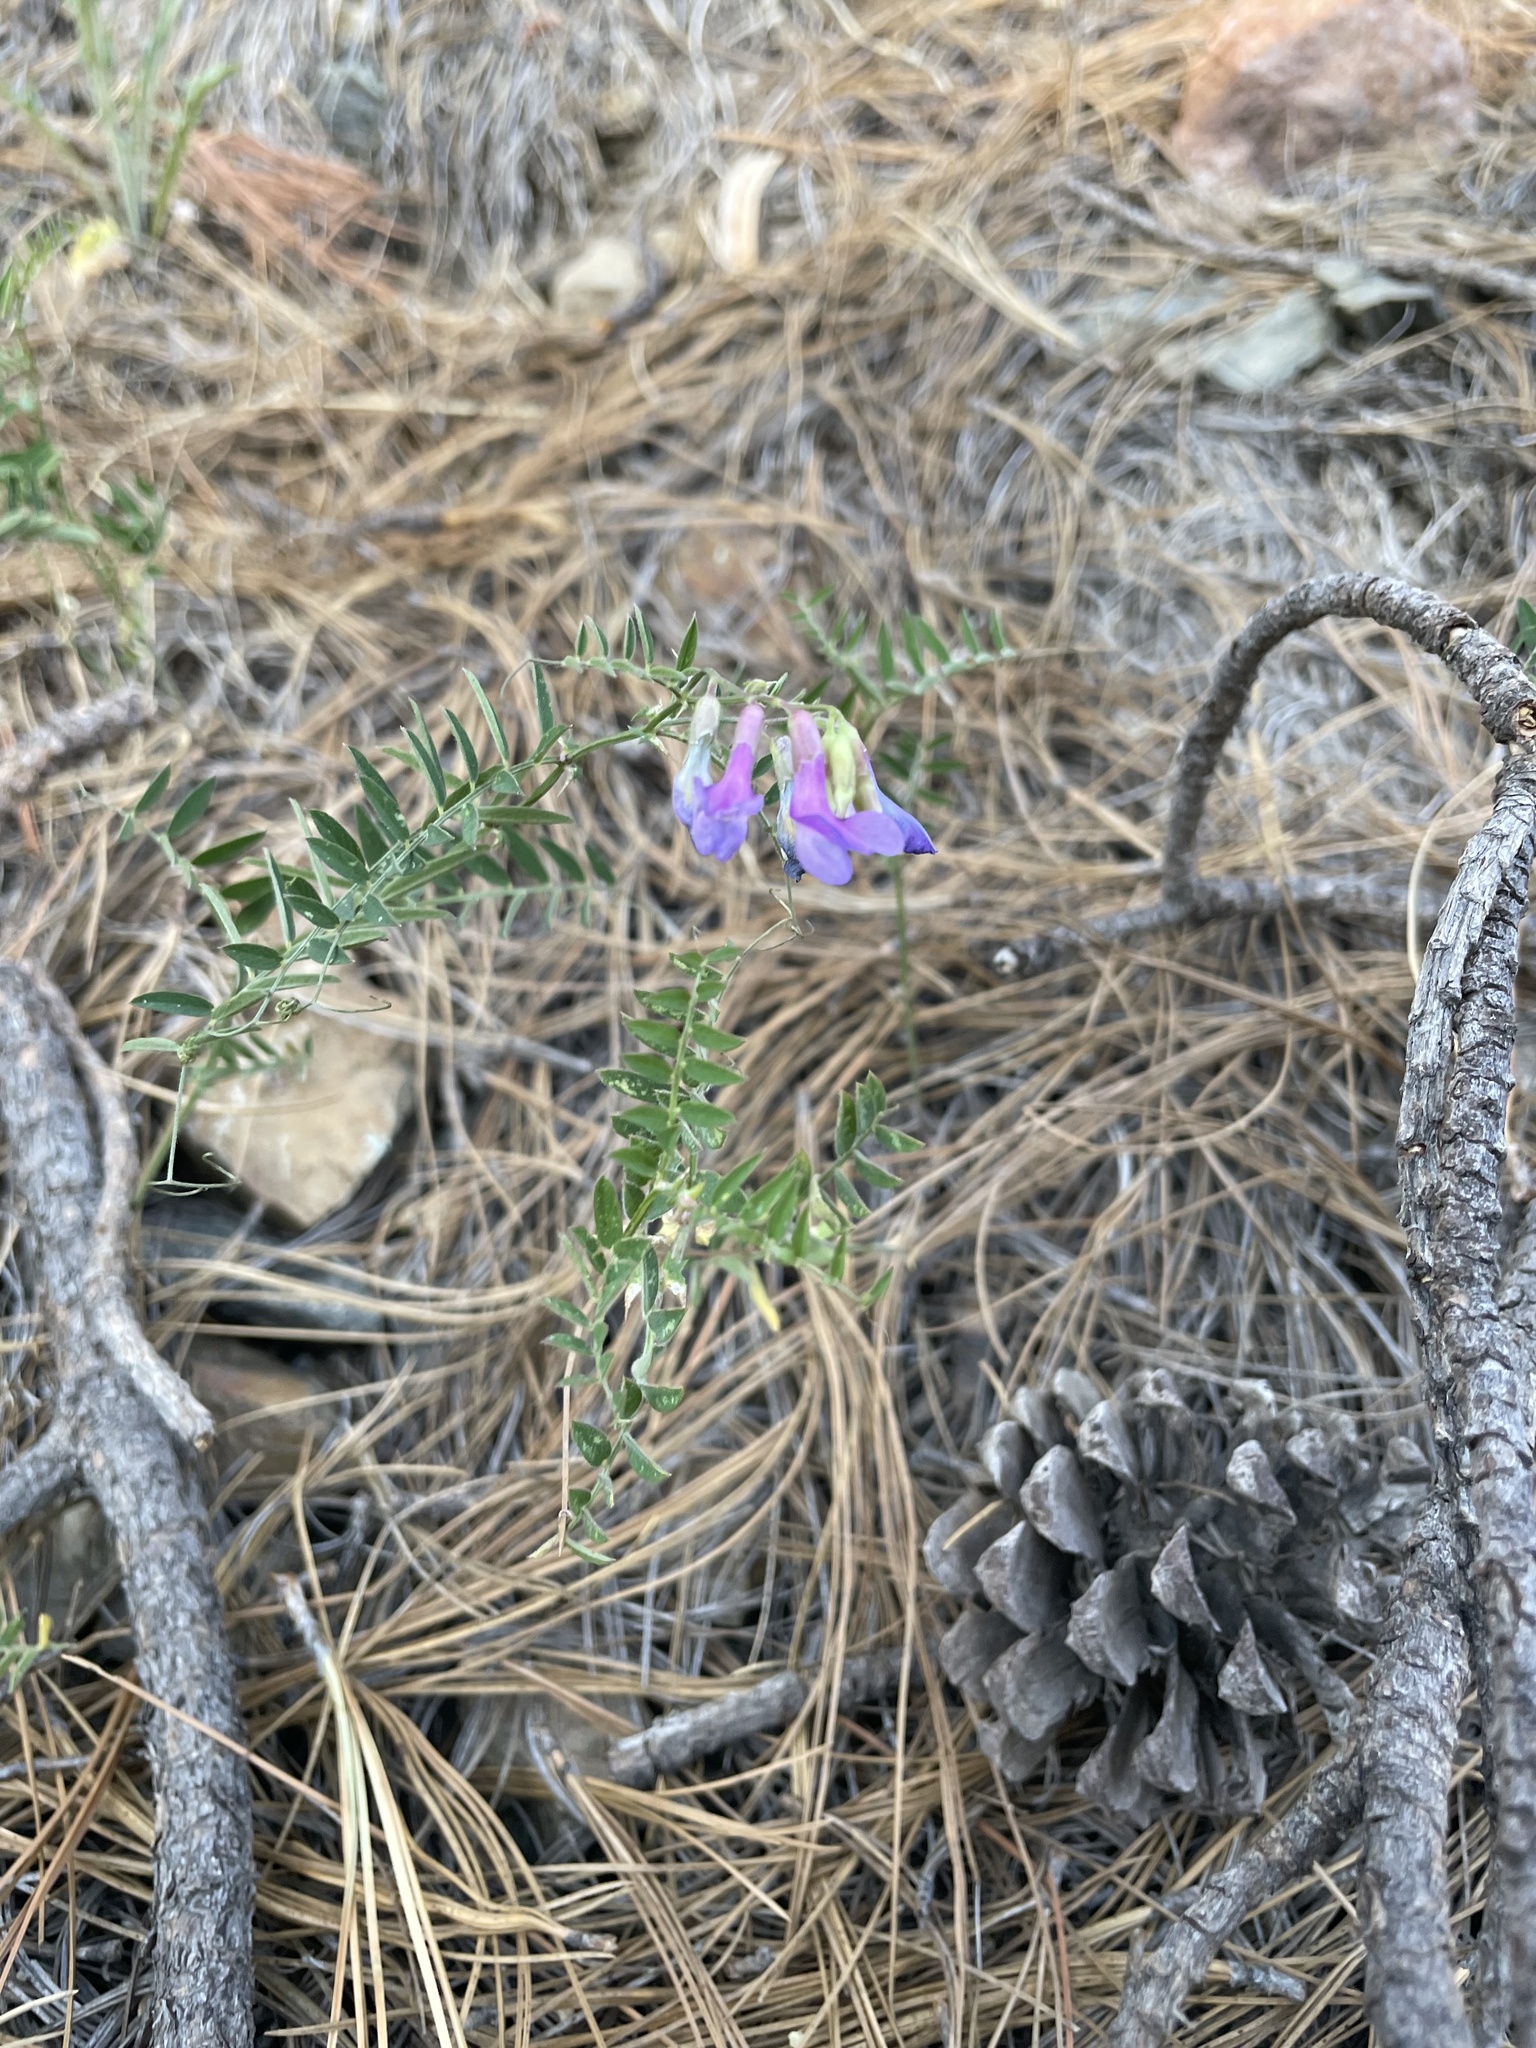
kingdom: Plantae
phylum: Tracheophyta
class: Magnoliopsida
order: Fabales
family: Fabaceae
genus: Vicia
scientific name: Vicia americana
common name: American vetch
